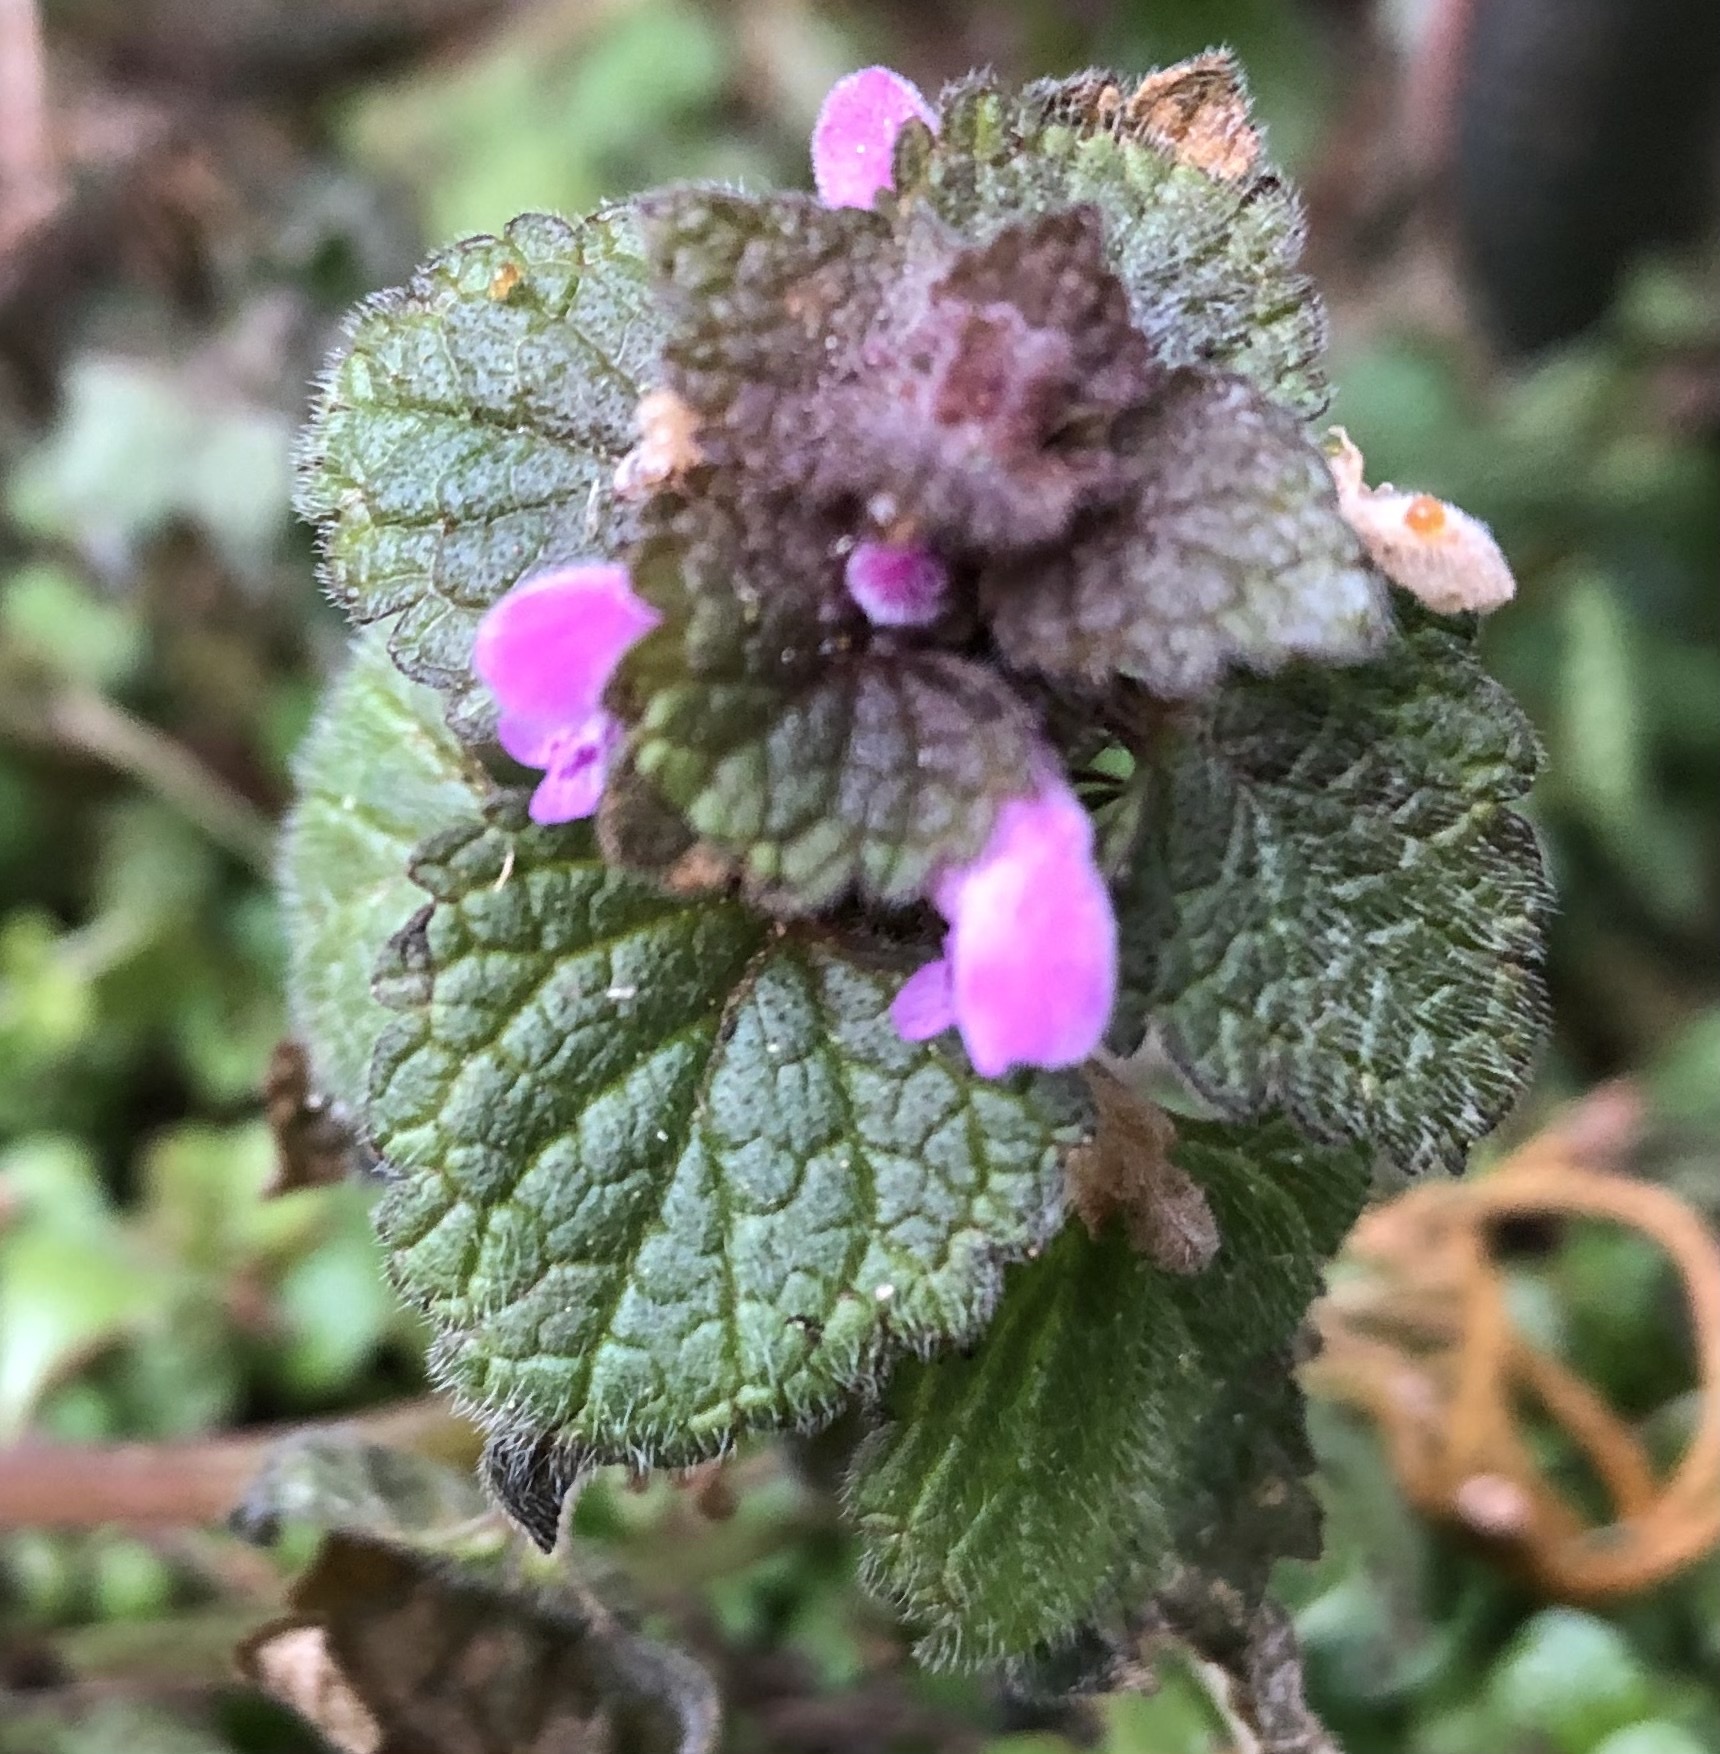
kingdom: Plantae
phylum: Tracheophyta
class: Magnoliopsida
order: Lamiales
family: Lamiaceae
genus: Lamium
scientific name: Lamium purpureum
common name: Red dead-nettle
